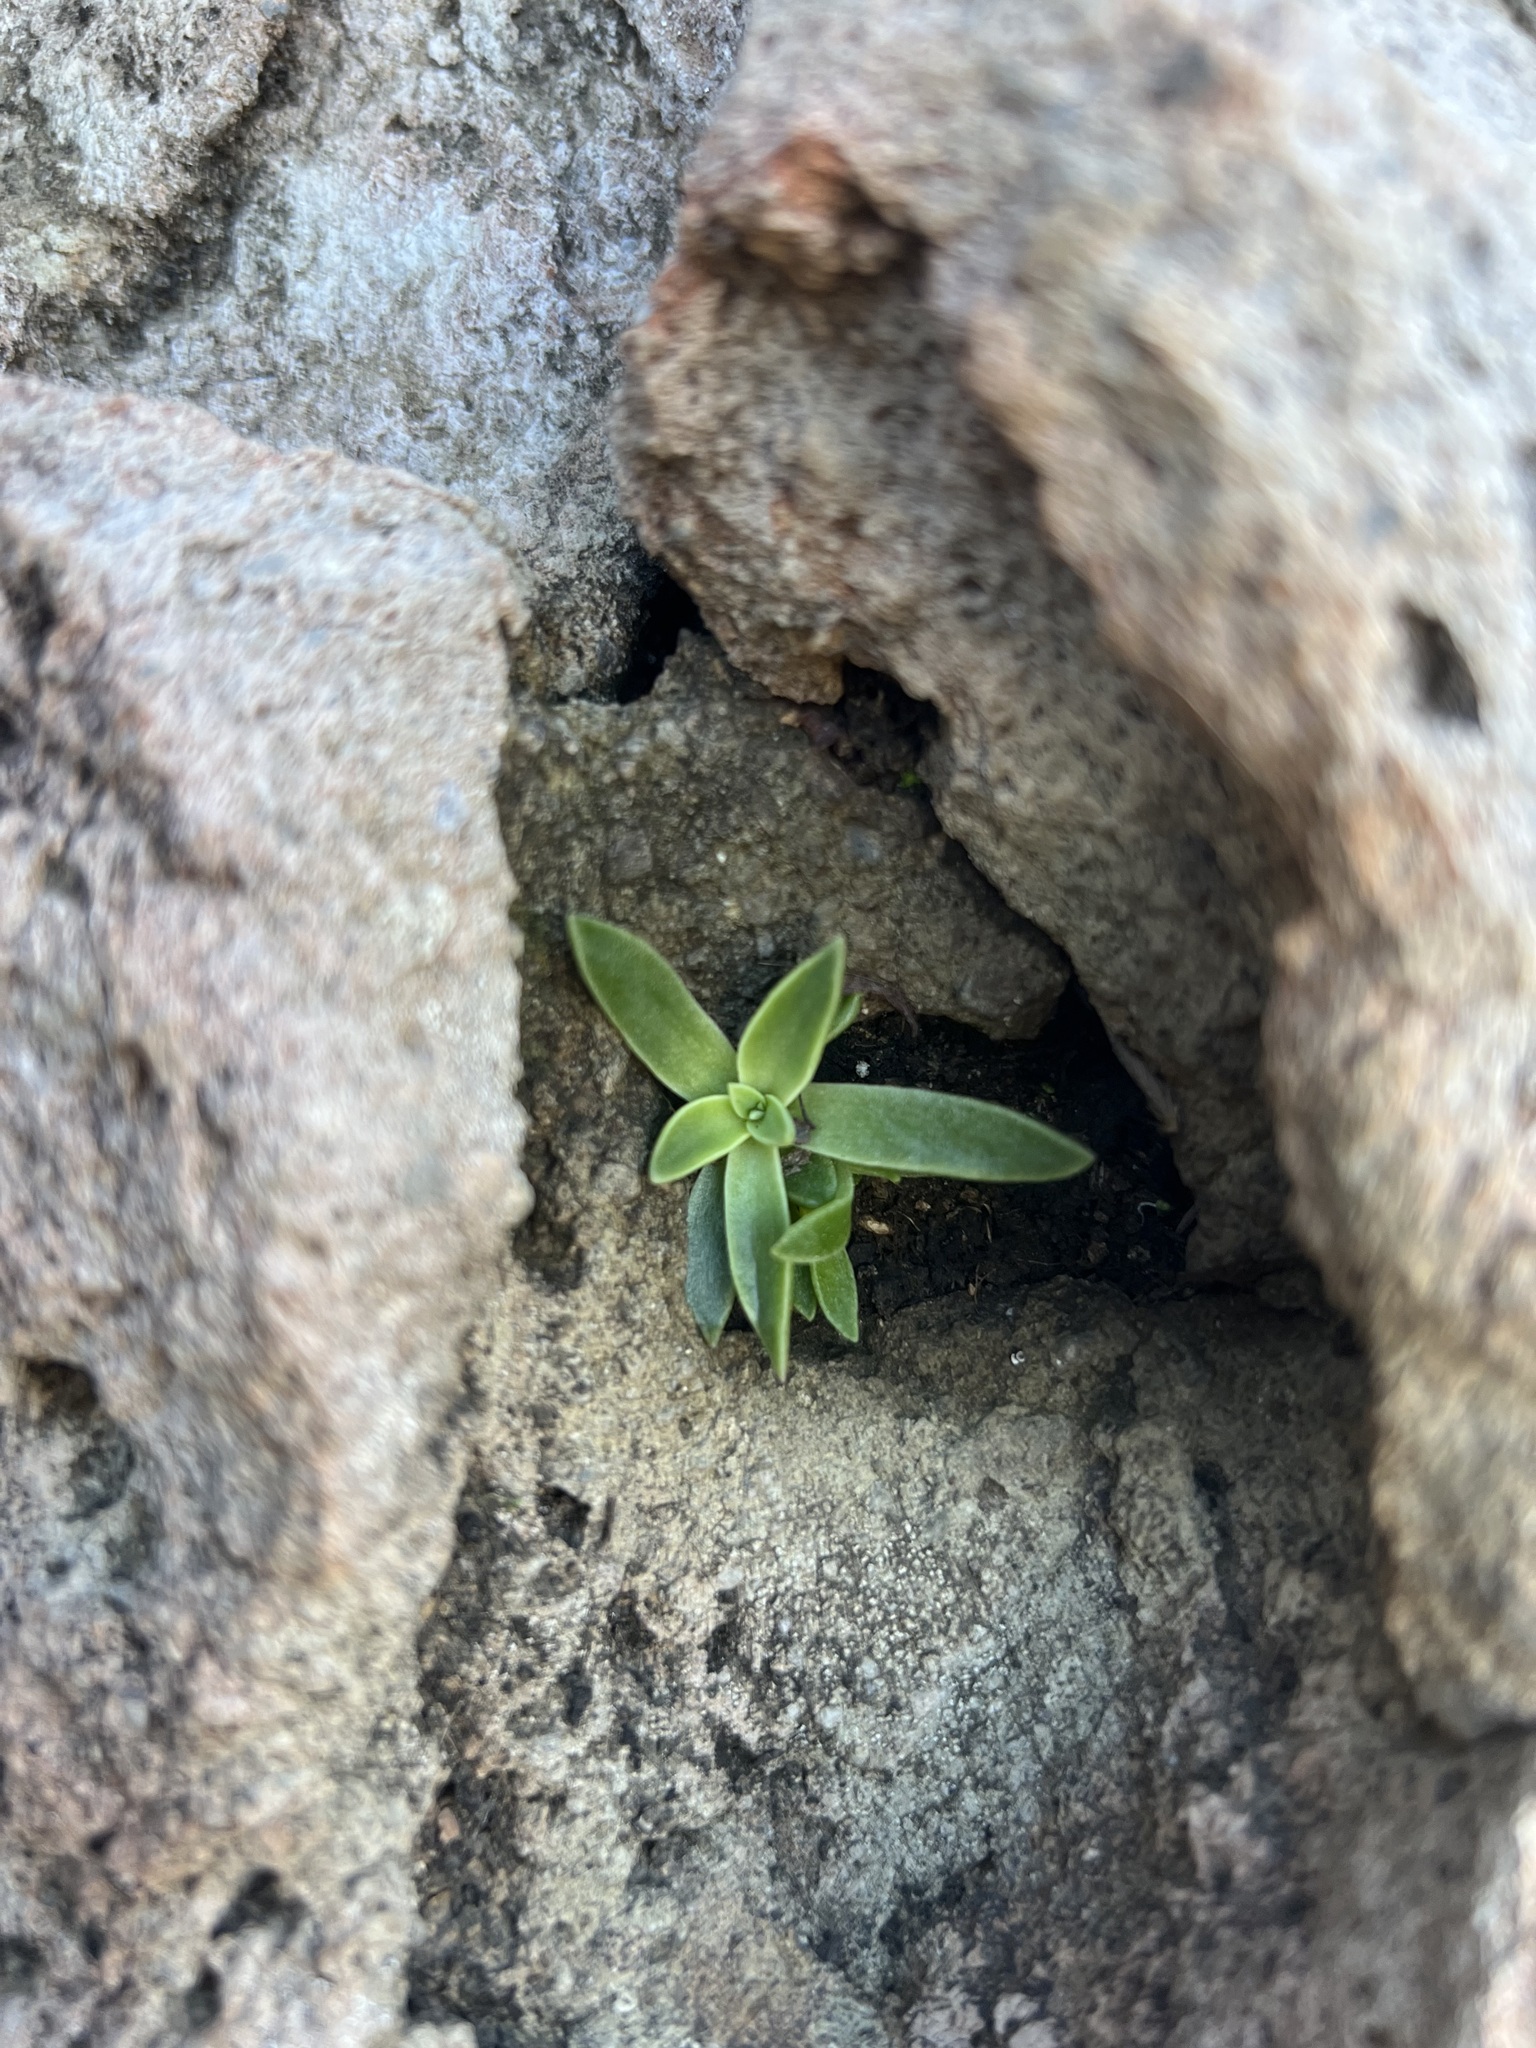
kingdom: Plantae
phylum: Tracheophyta
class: Magnoliopsida
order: Saxifragales
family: Crassulaceae
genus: Dudleya
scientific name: Dudleya lanceolata
